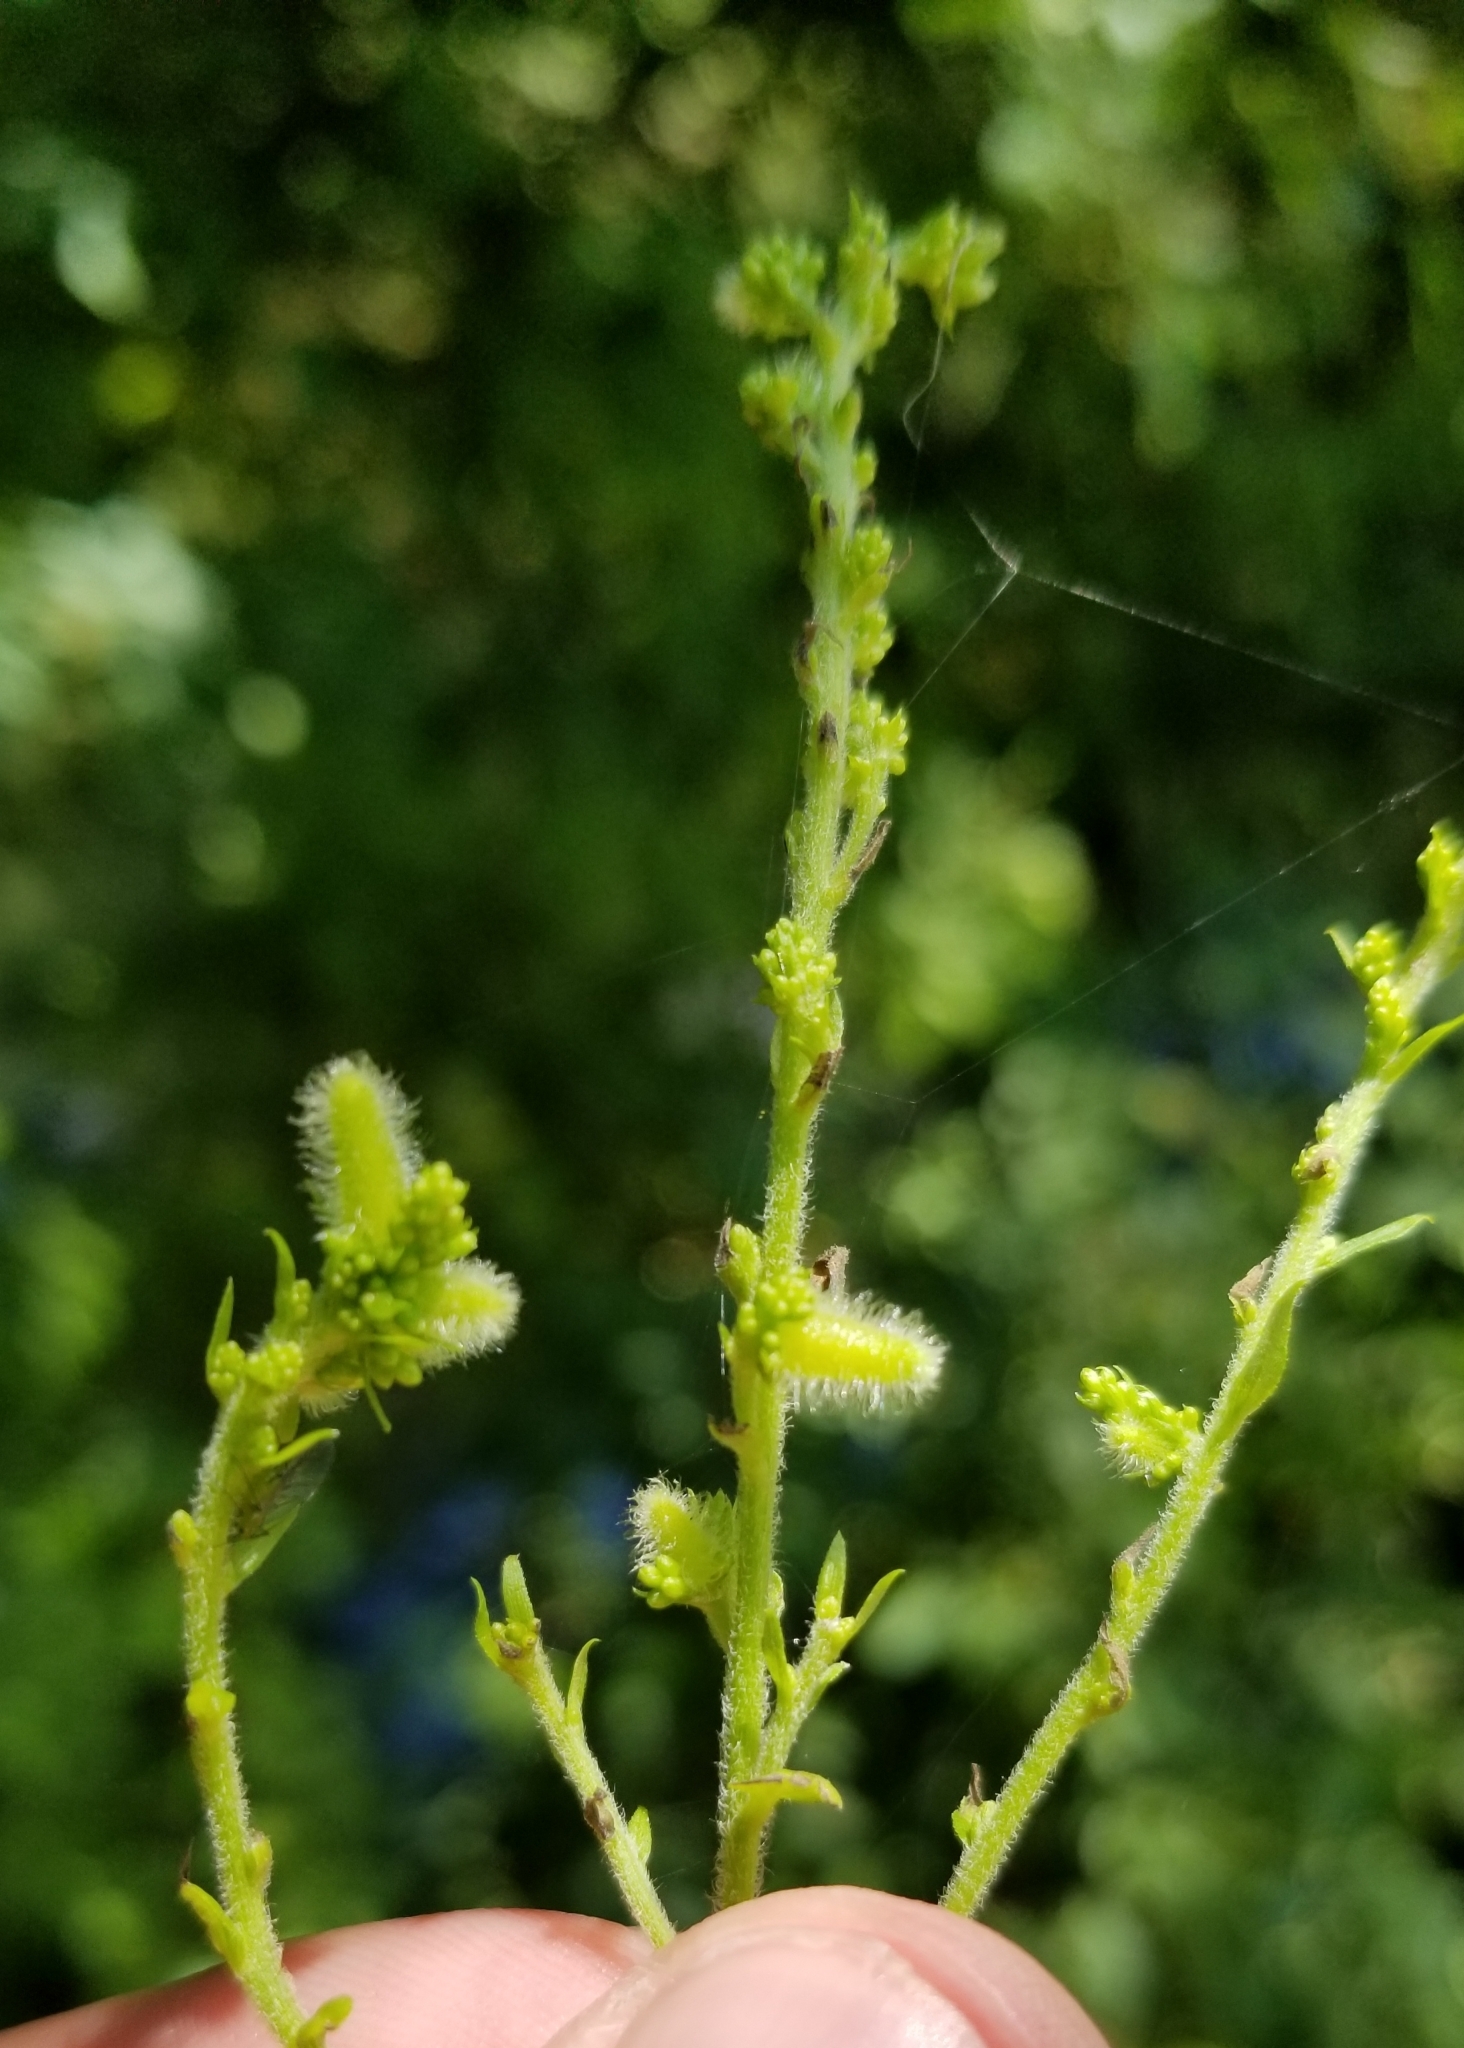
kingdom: Animalia
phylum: Arthropoda
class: Insecta
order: Diptera
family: Cecidomyiidae
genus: Rhopalomyia
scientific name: Rhopalomyia anthophila
